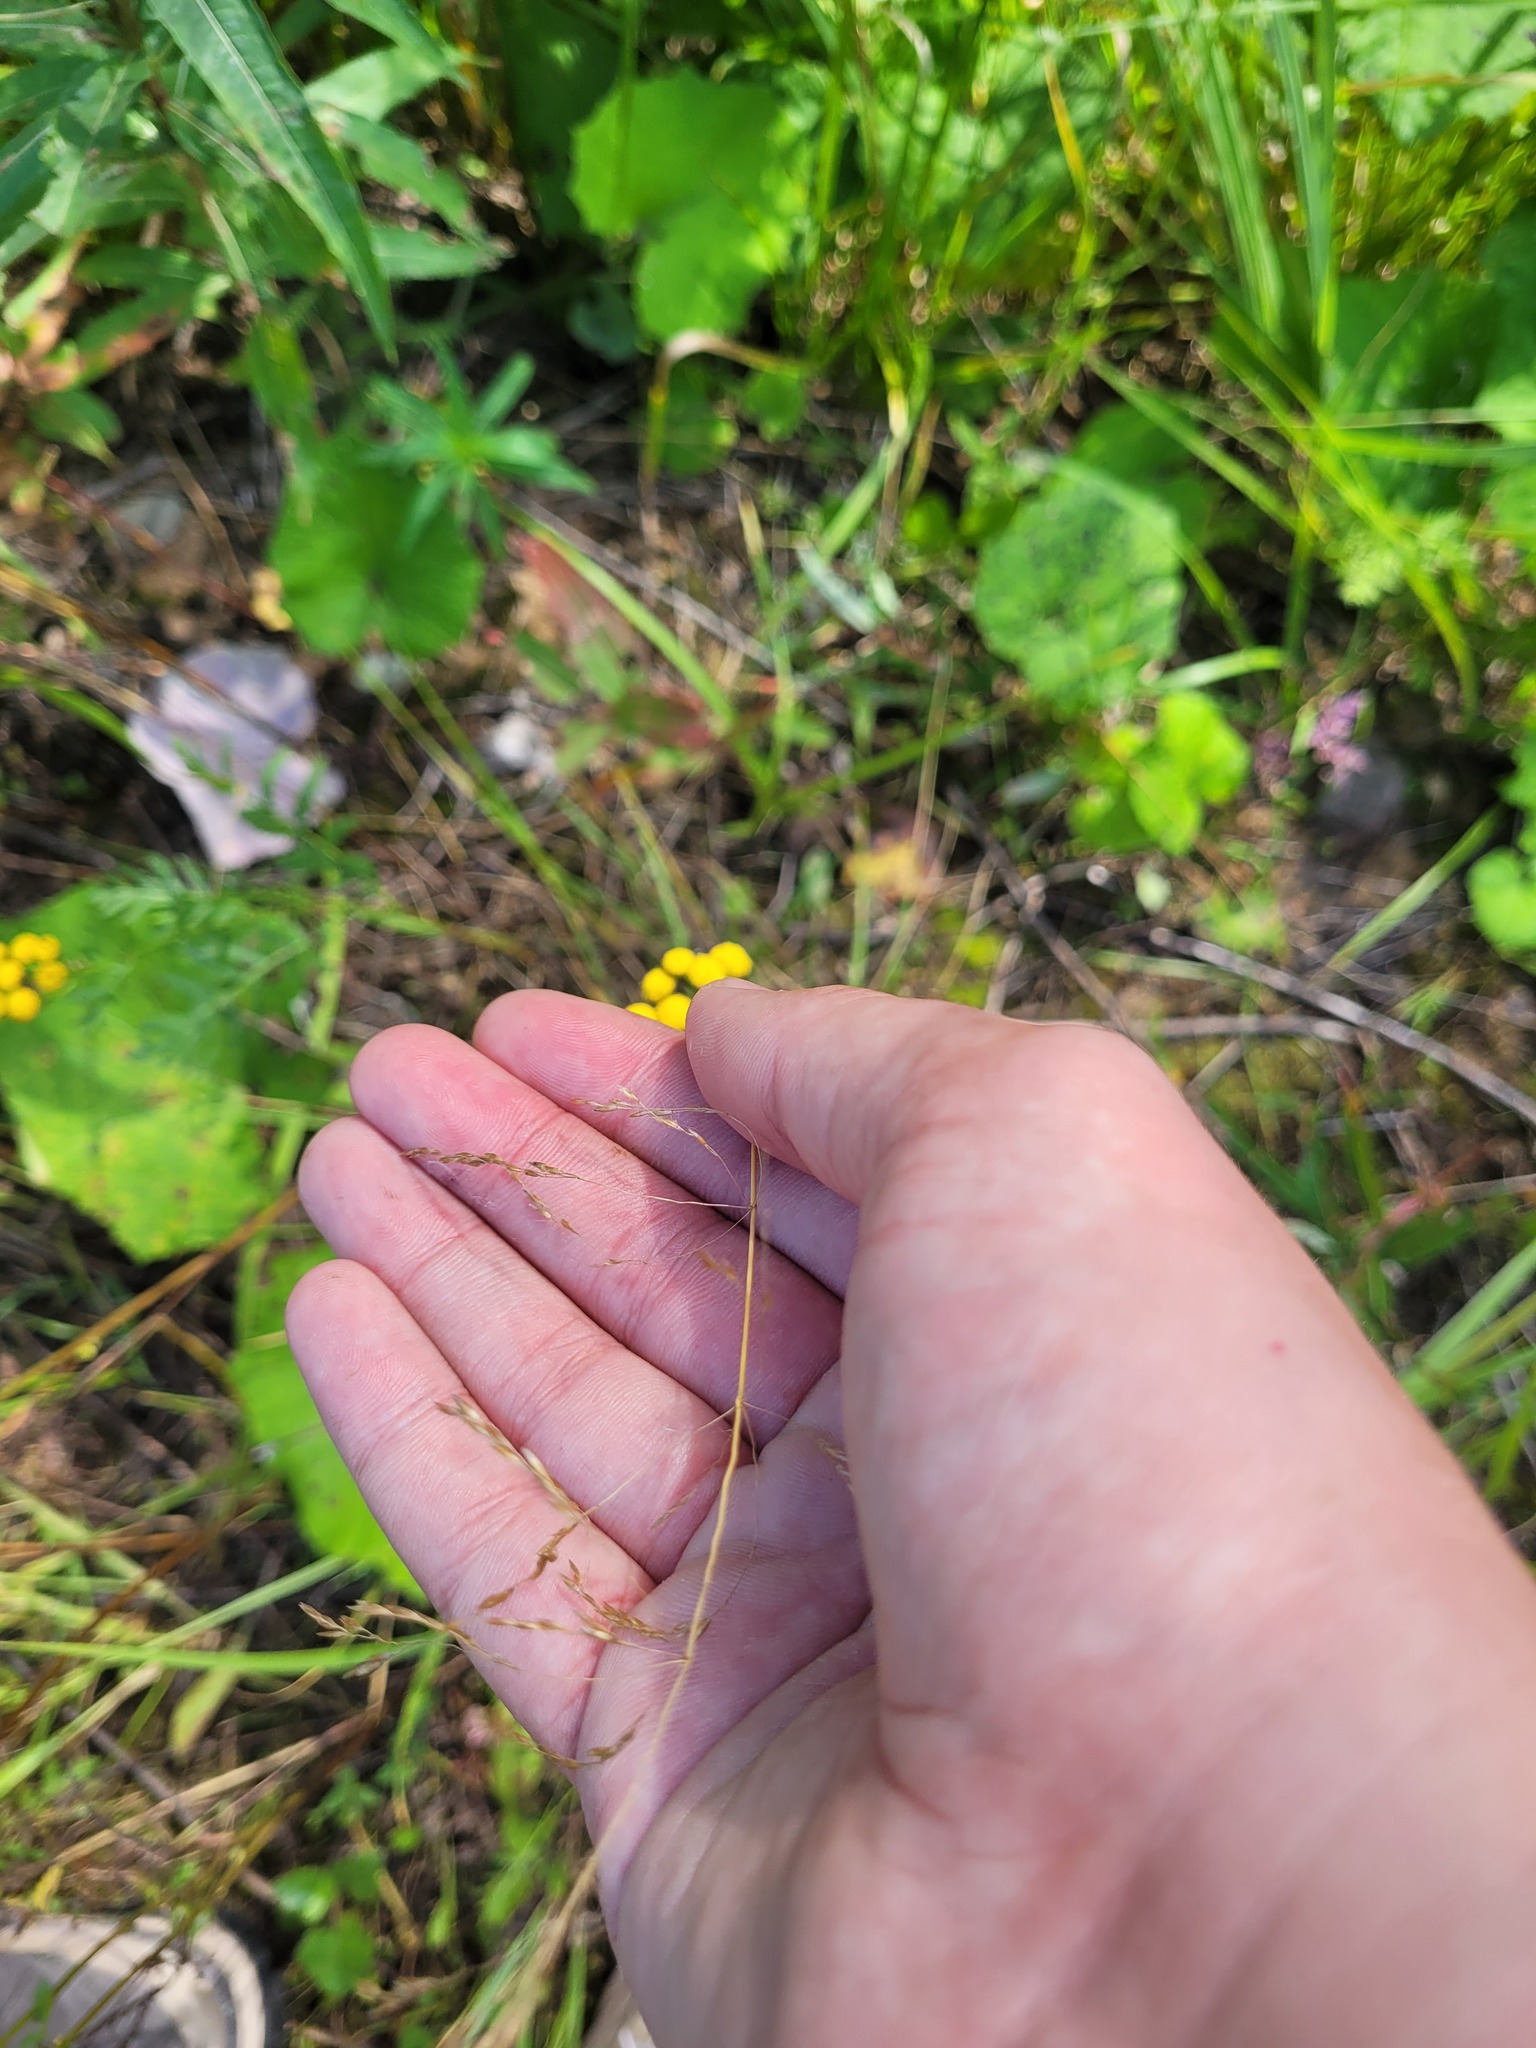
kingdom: Plantae
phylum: Tracheophyta
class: Liliopsida
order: Poales
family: Poaceae
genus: Deschampsia
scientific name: Deschampsia cespitosa
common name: Tufted hair-grass
